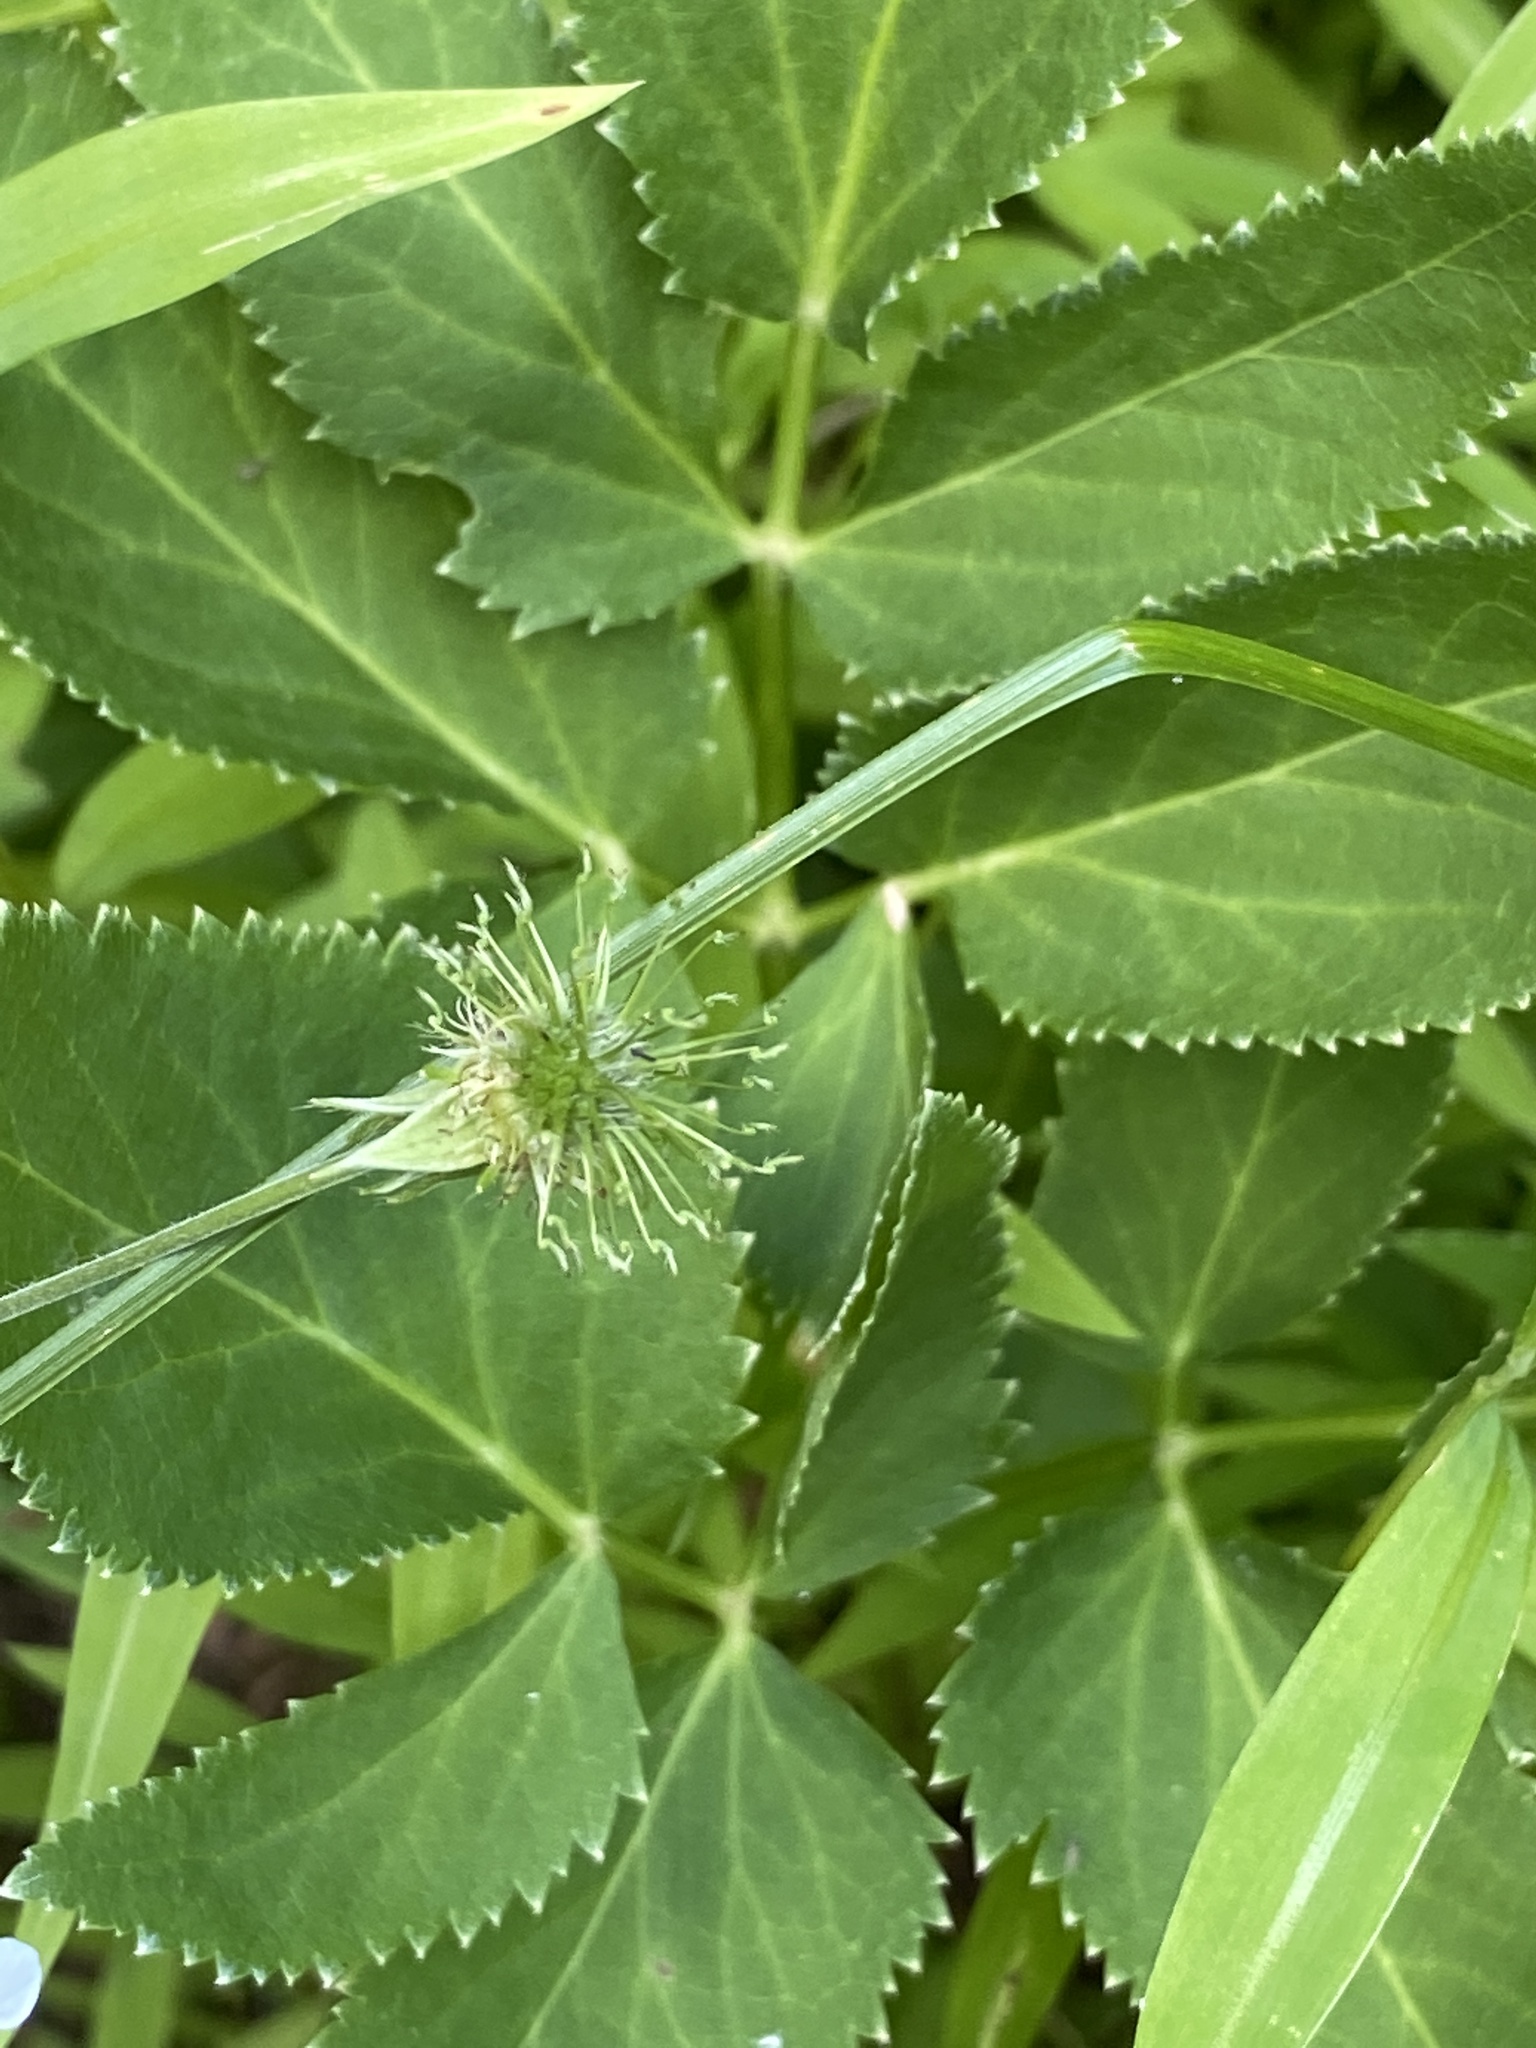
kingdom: Plantae
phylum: Tracheophyta
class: Magnoliopsida
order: Rosales
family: Rosaceae
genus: Geum
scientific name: Geum canadense
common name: White avens
